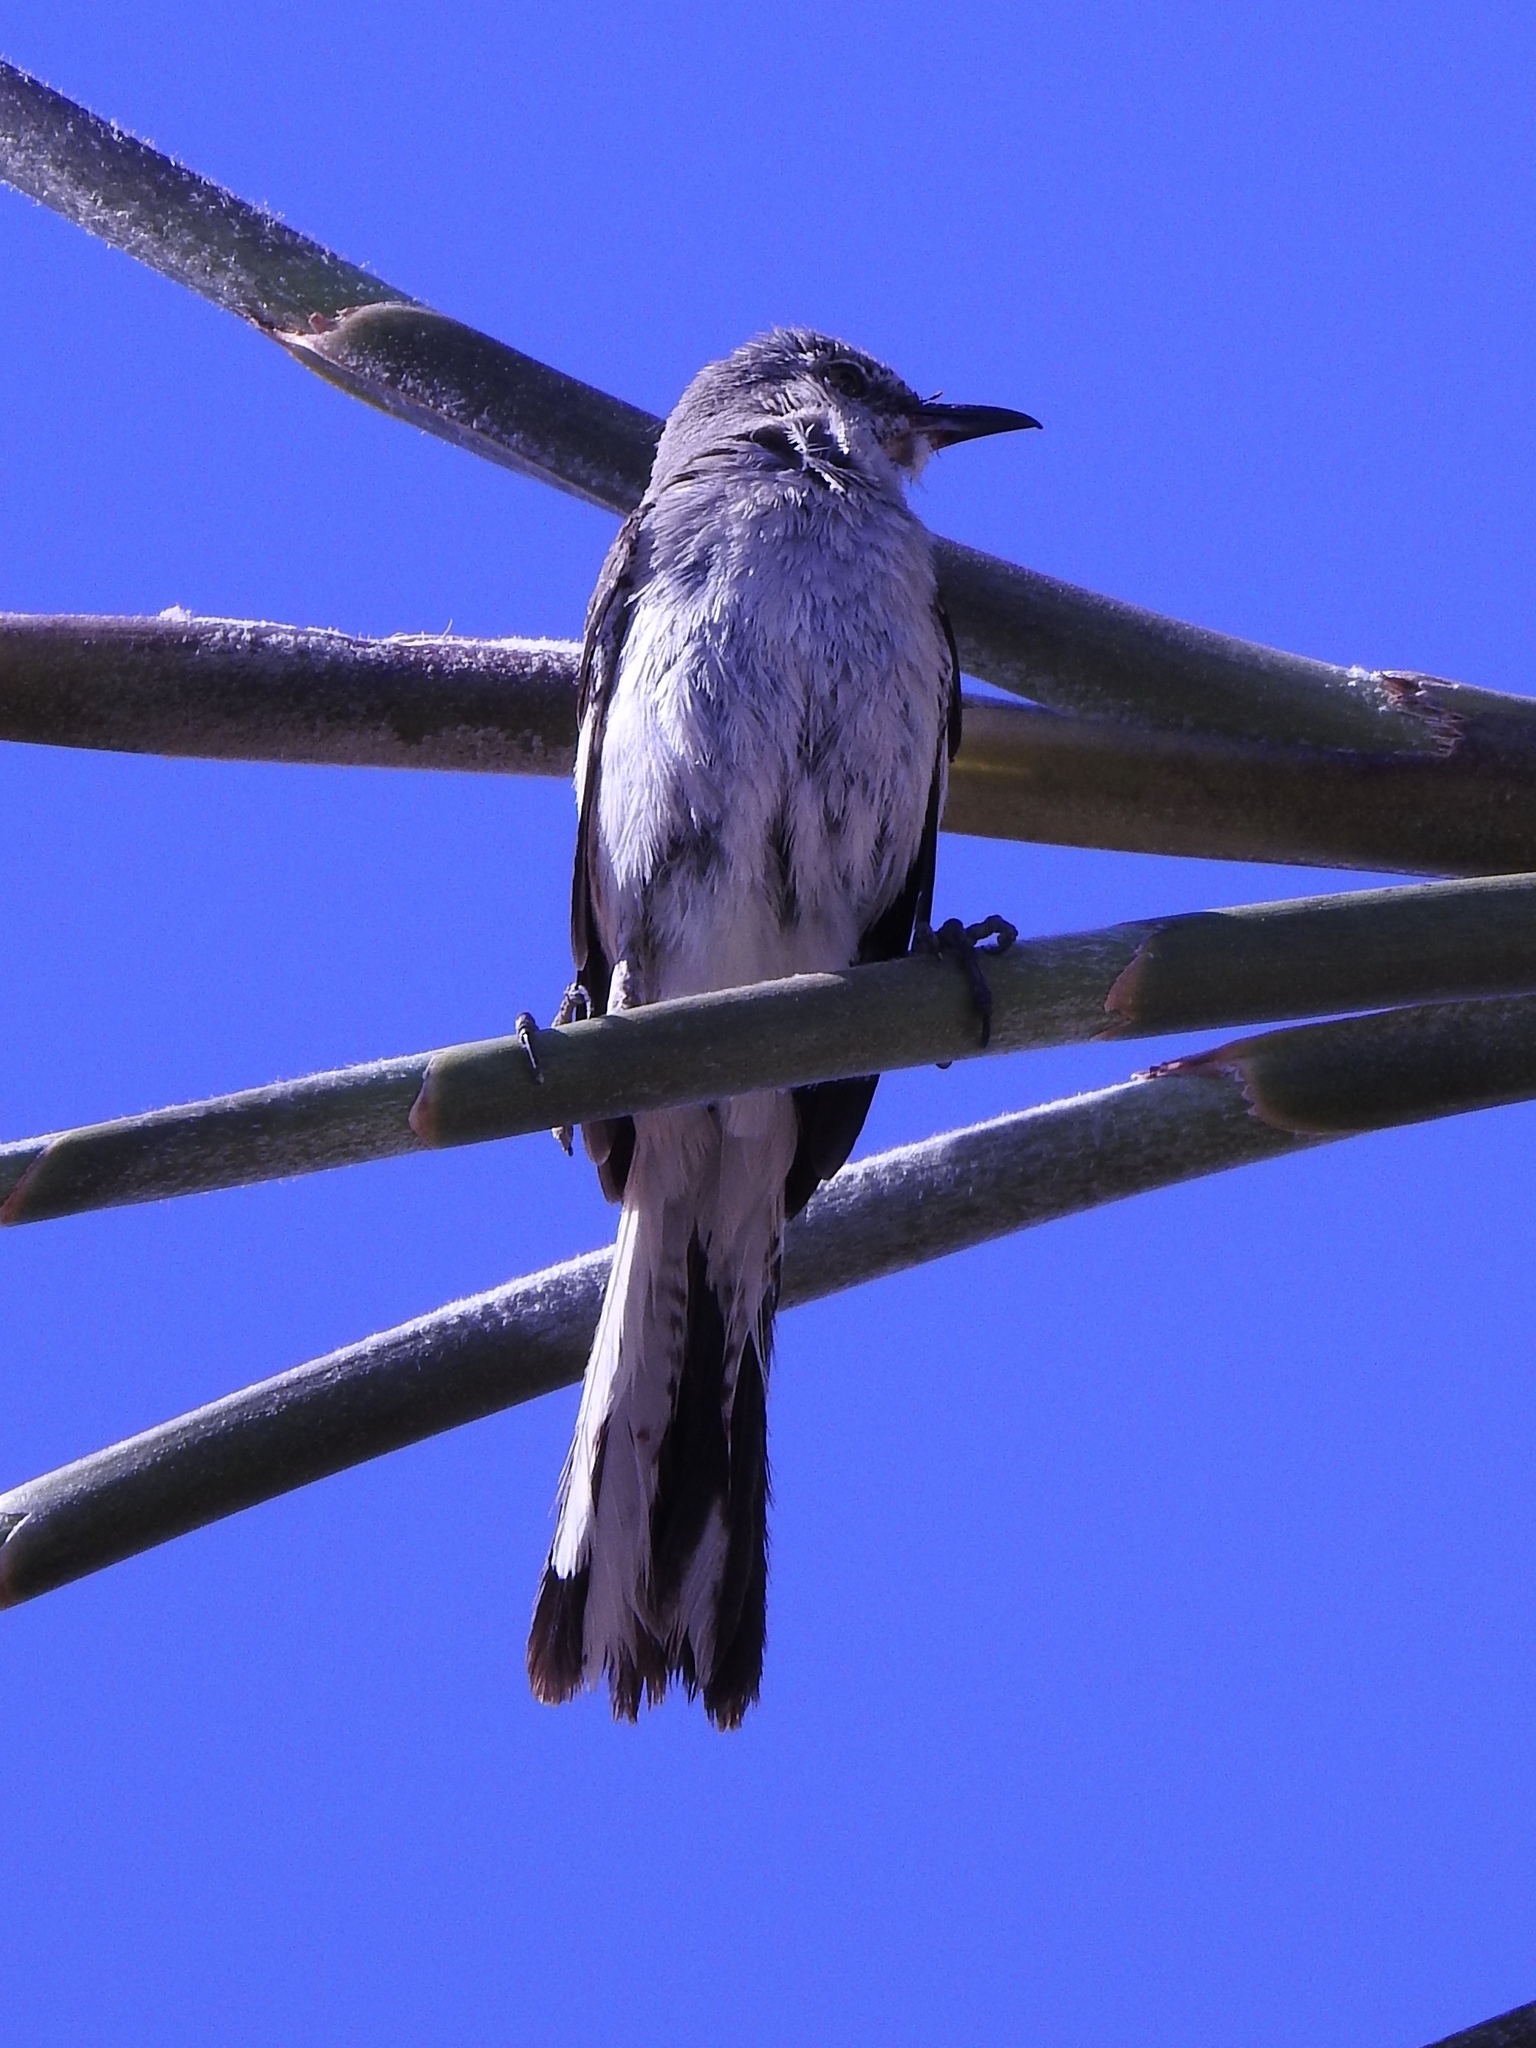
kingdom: Animalia
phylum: Chordata
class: Aves
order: Passeriformes
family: Mimidae
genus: Mimus
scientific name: Mimus polyglottos
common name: Northern mockingbird
